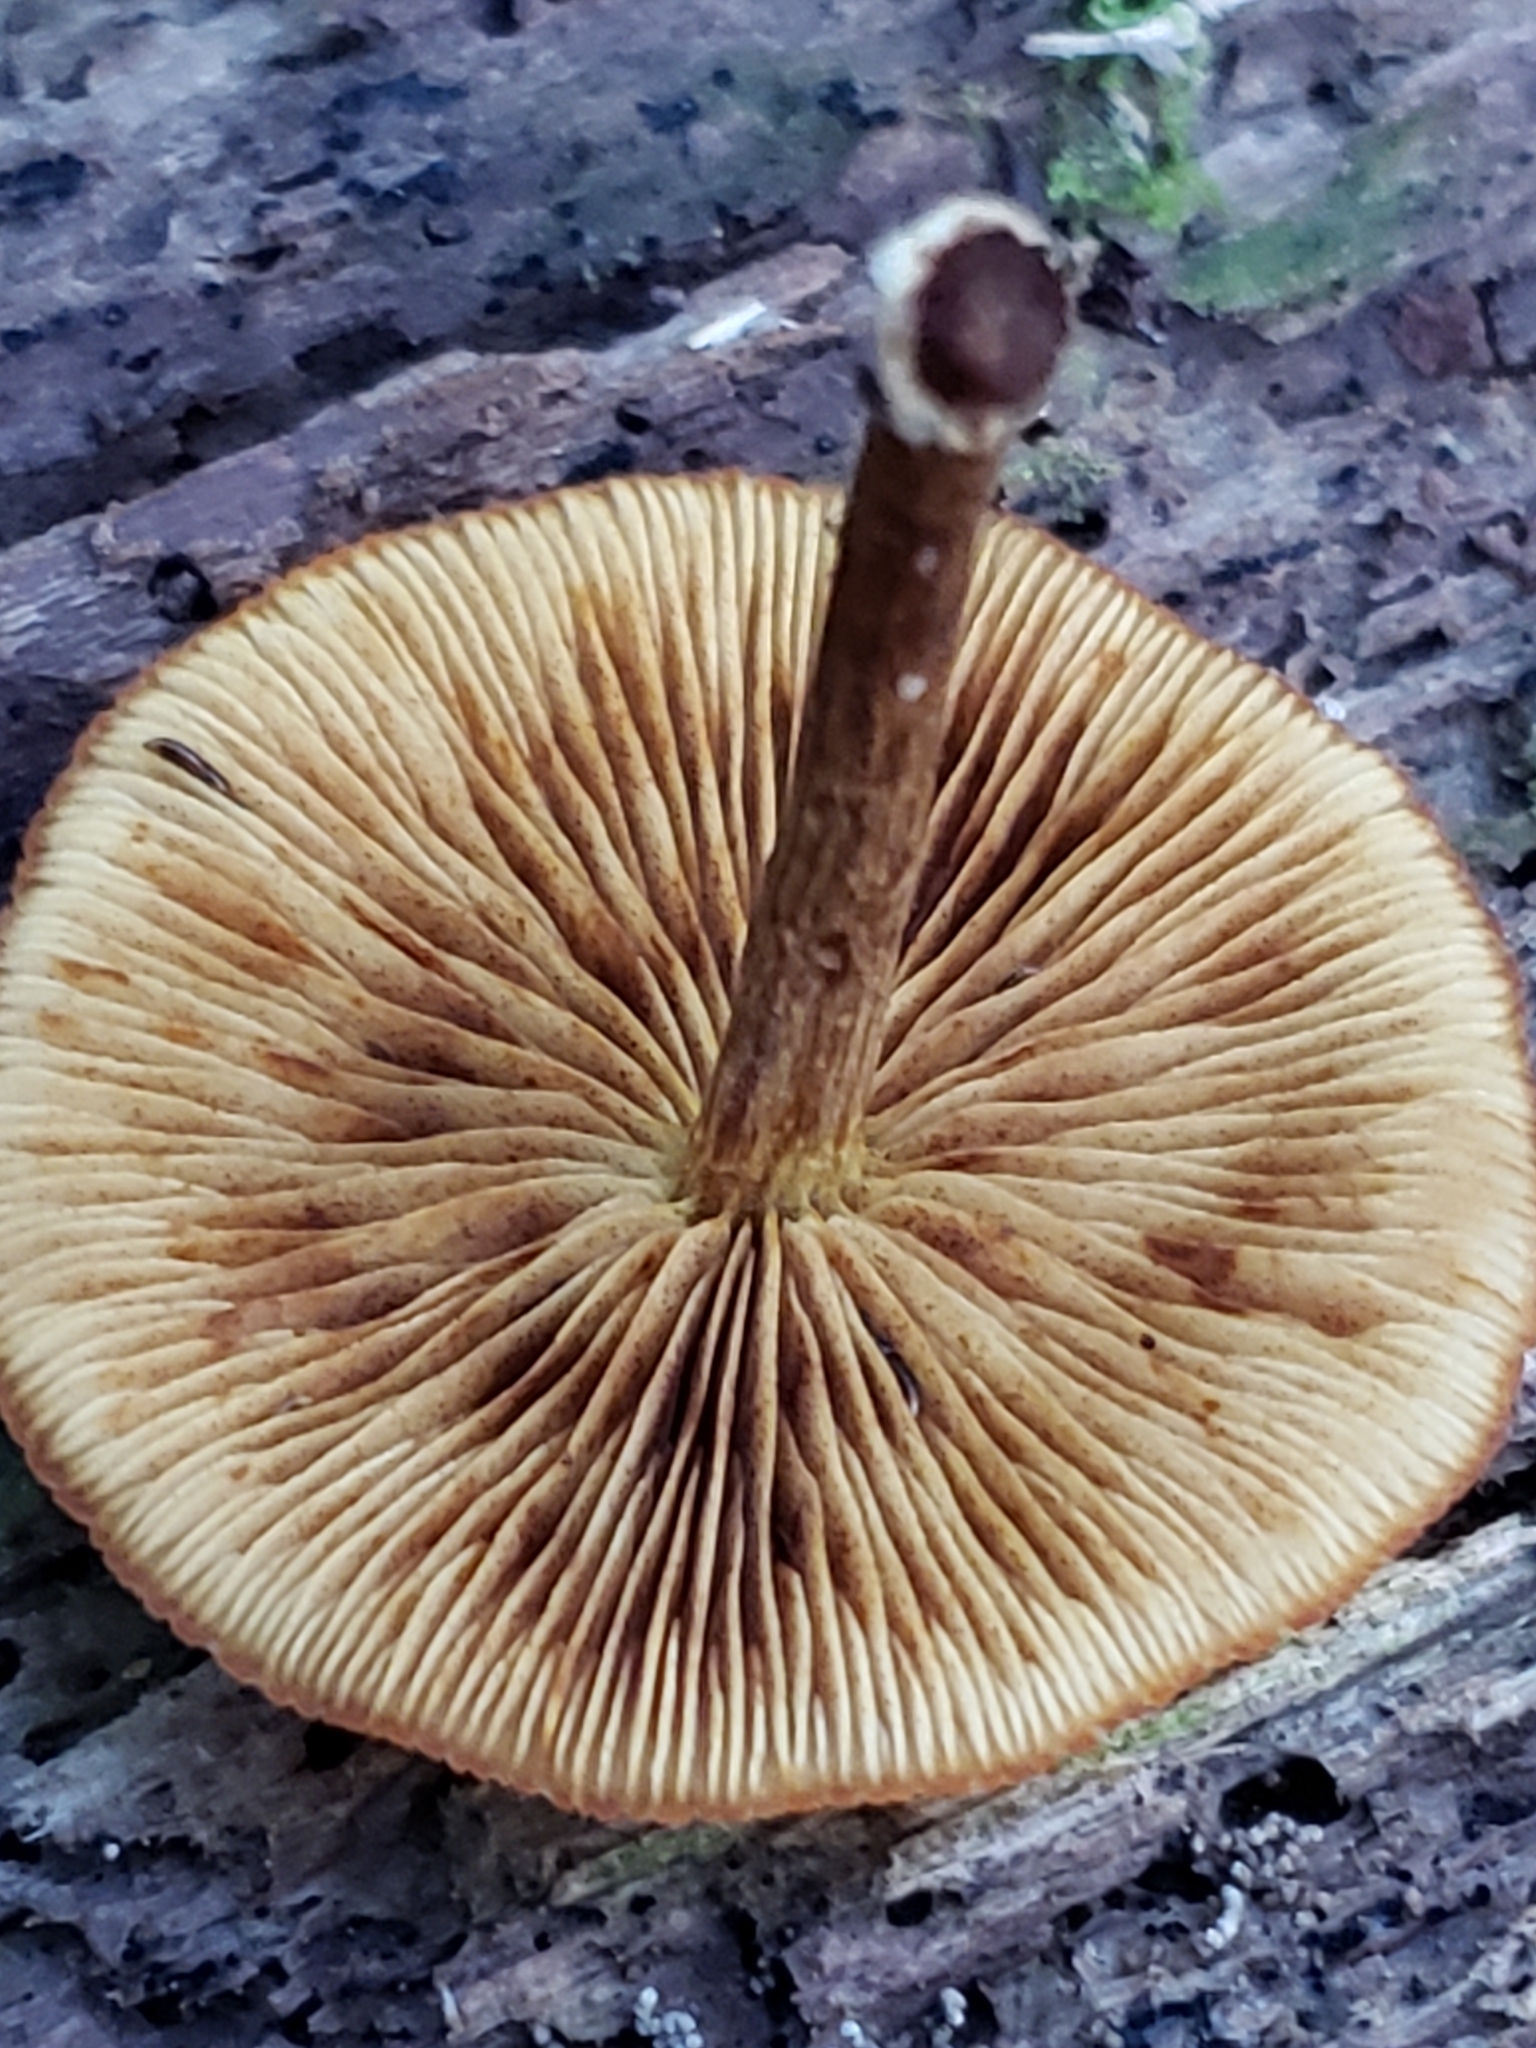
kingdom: Fungi
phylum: Basidiomycota
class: Agaricomycetes
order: Agaricales
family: Strophariaceae
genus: Pholiota
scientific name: Pholiota granulosa
